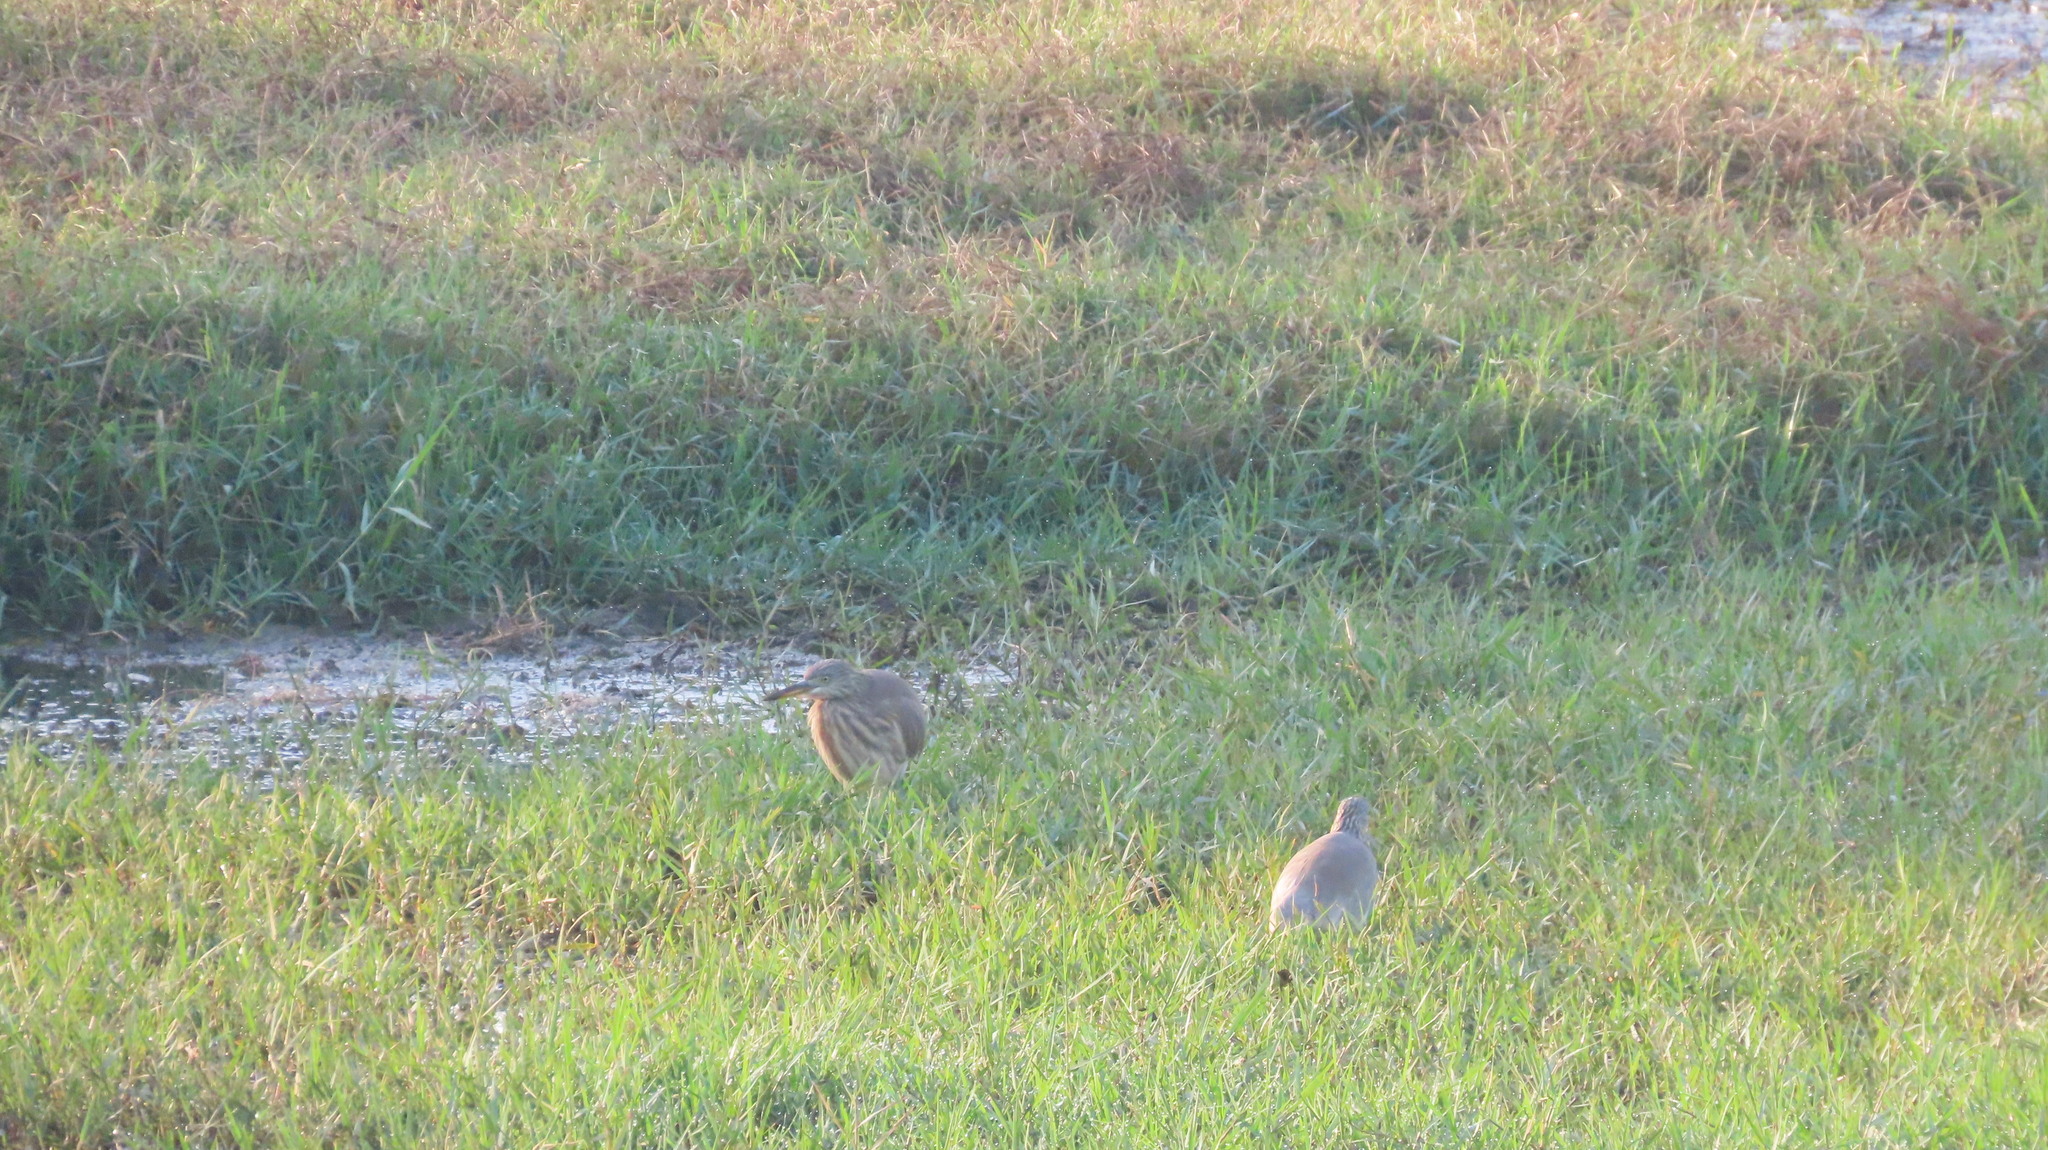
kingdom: Animalia
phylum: Chordata
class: Aves
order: Pelecaniformes
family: Ardeidae
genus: Ardeola
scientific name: Ardeola grayii
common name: Indian pond heron
